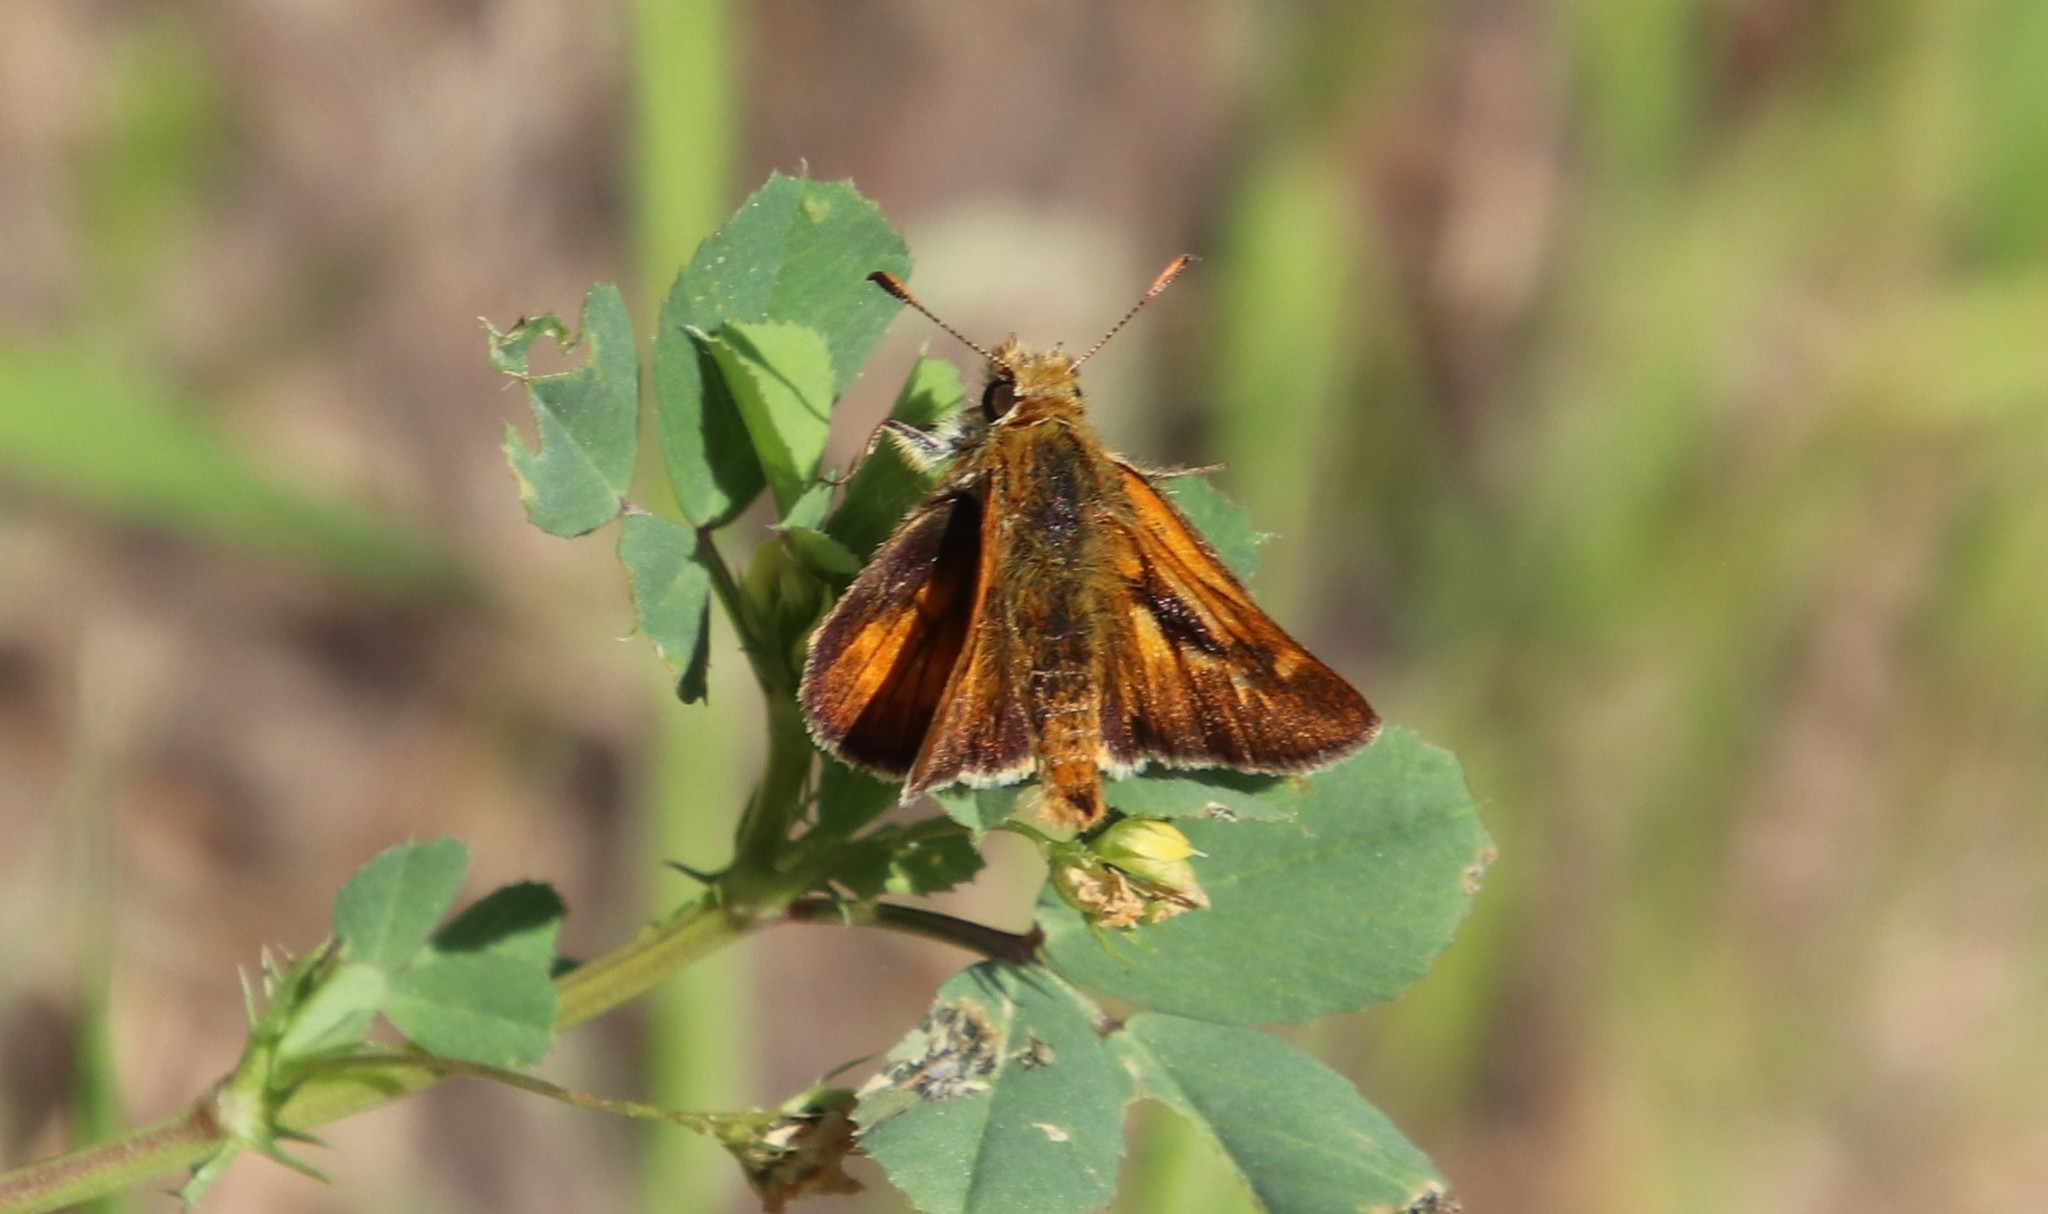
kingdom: Animalia
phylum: Arthropoda
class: Insecta
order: Lepidoptera
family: Hesperiidae
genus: Ochlodes
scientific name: Ochlodes agricola
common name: Rural skipper
